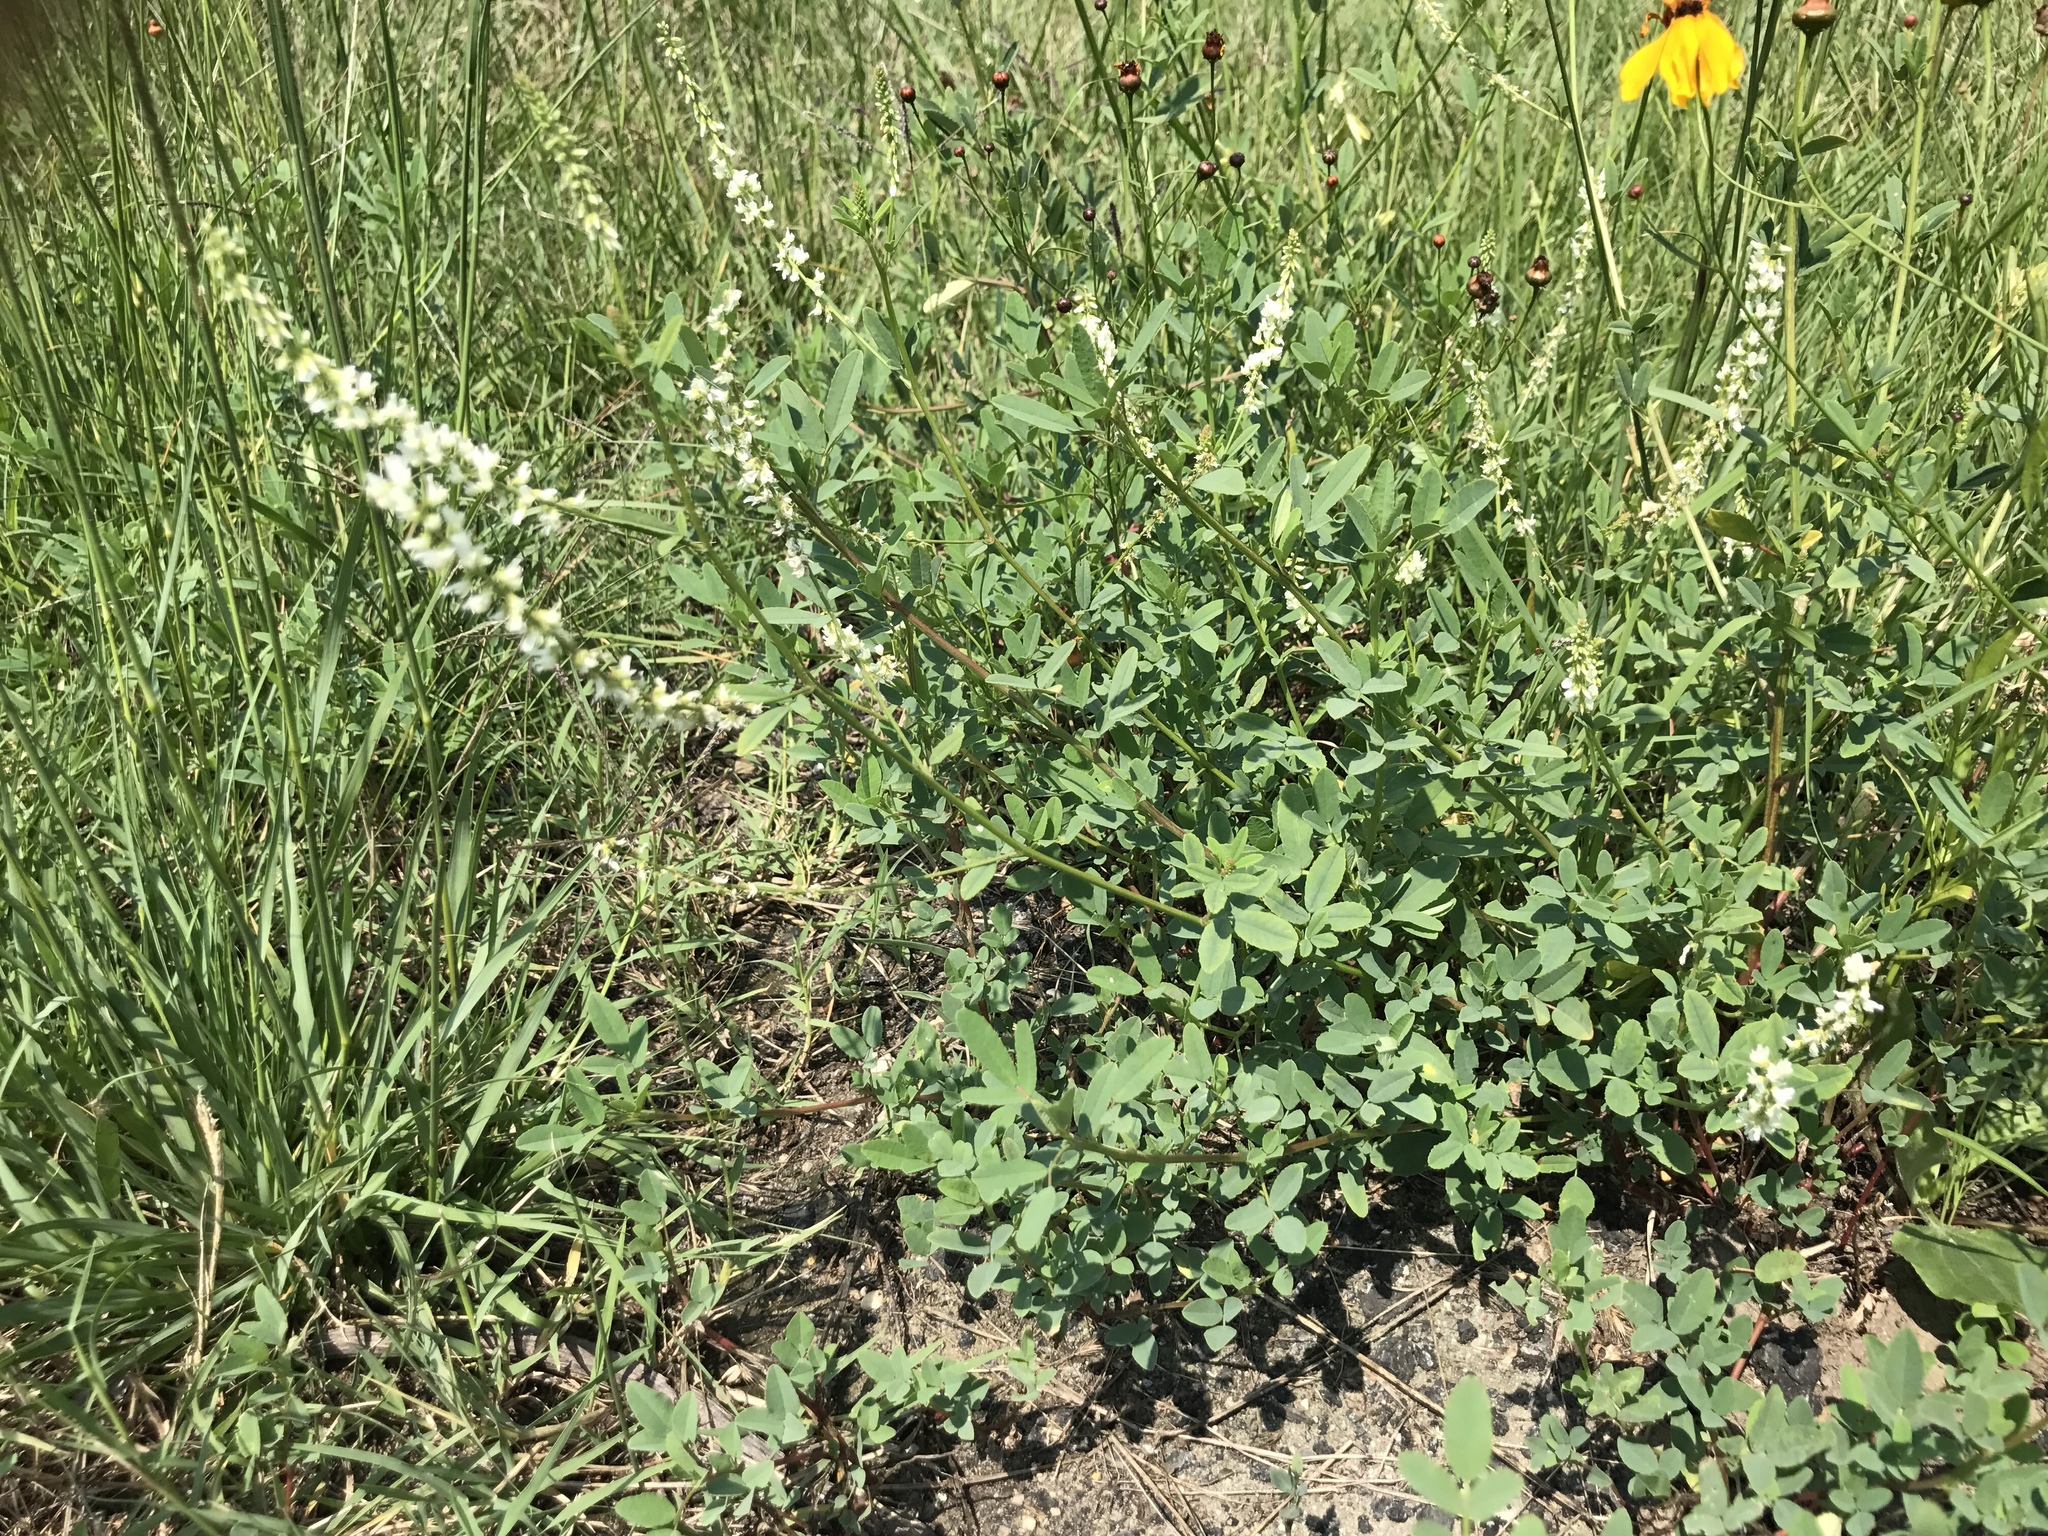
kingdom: Plantae
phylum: Tracheophyta
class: Magnoliopsida
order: Fabales
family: Fabaceae
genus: Melilotus
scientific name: Melilotus albus
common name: White melilot
